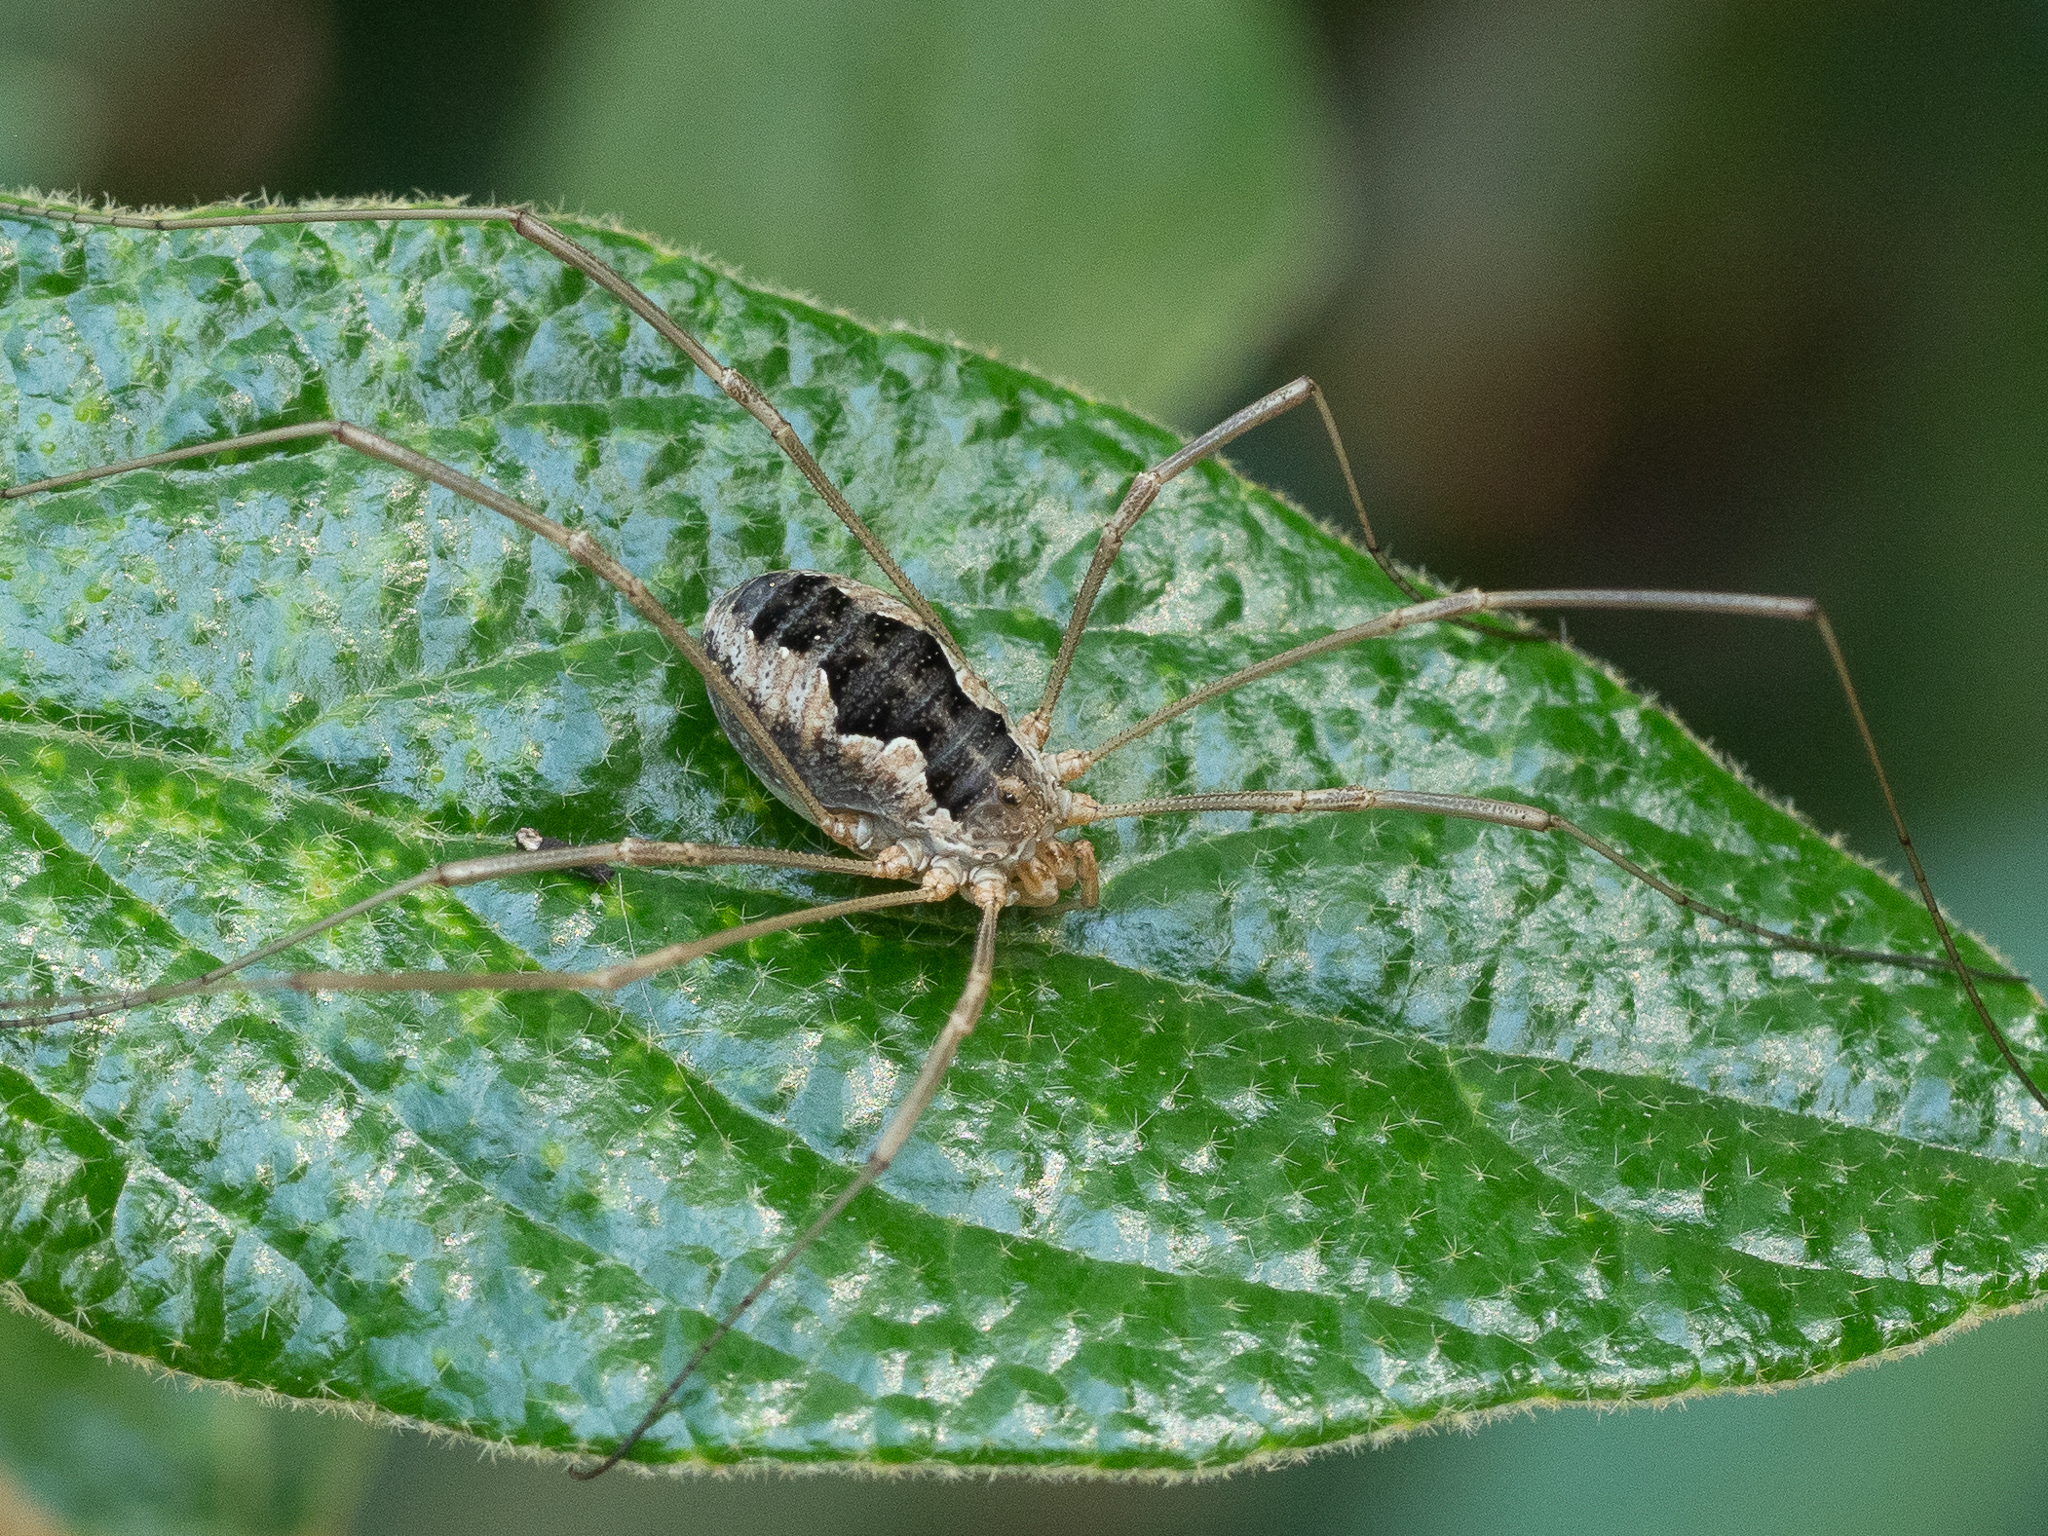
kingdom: Animalia
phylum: Arthropoda
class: Arachnida
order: Opiliones
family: Phalangiidae
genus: Phalangium
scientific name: Phalangium opilio
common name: Daddy longleg
